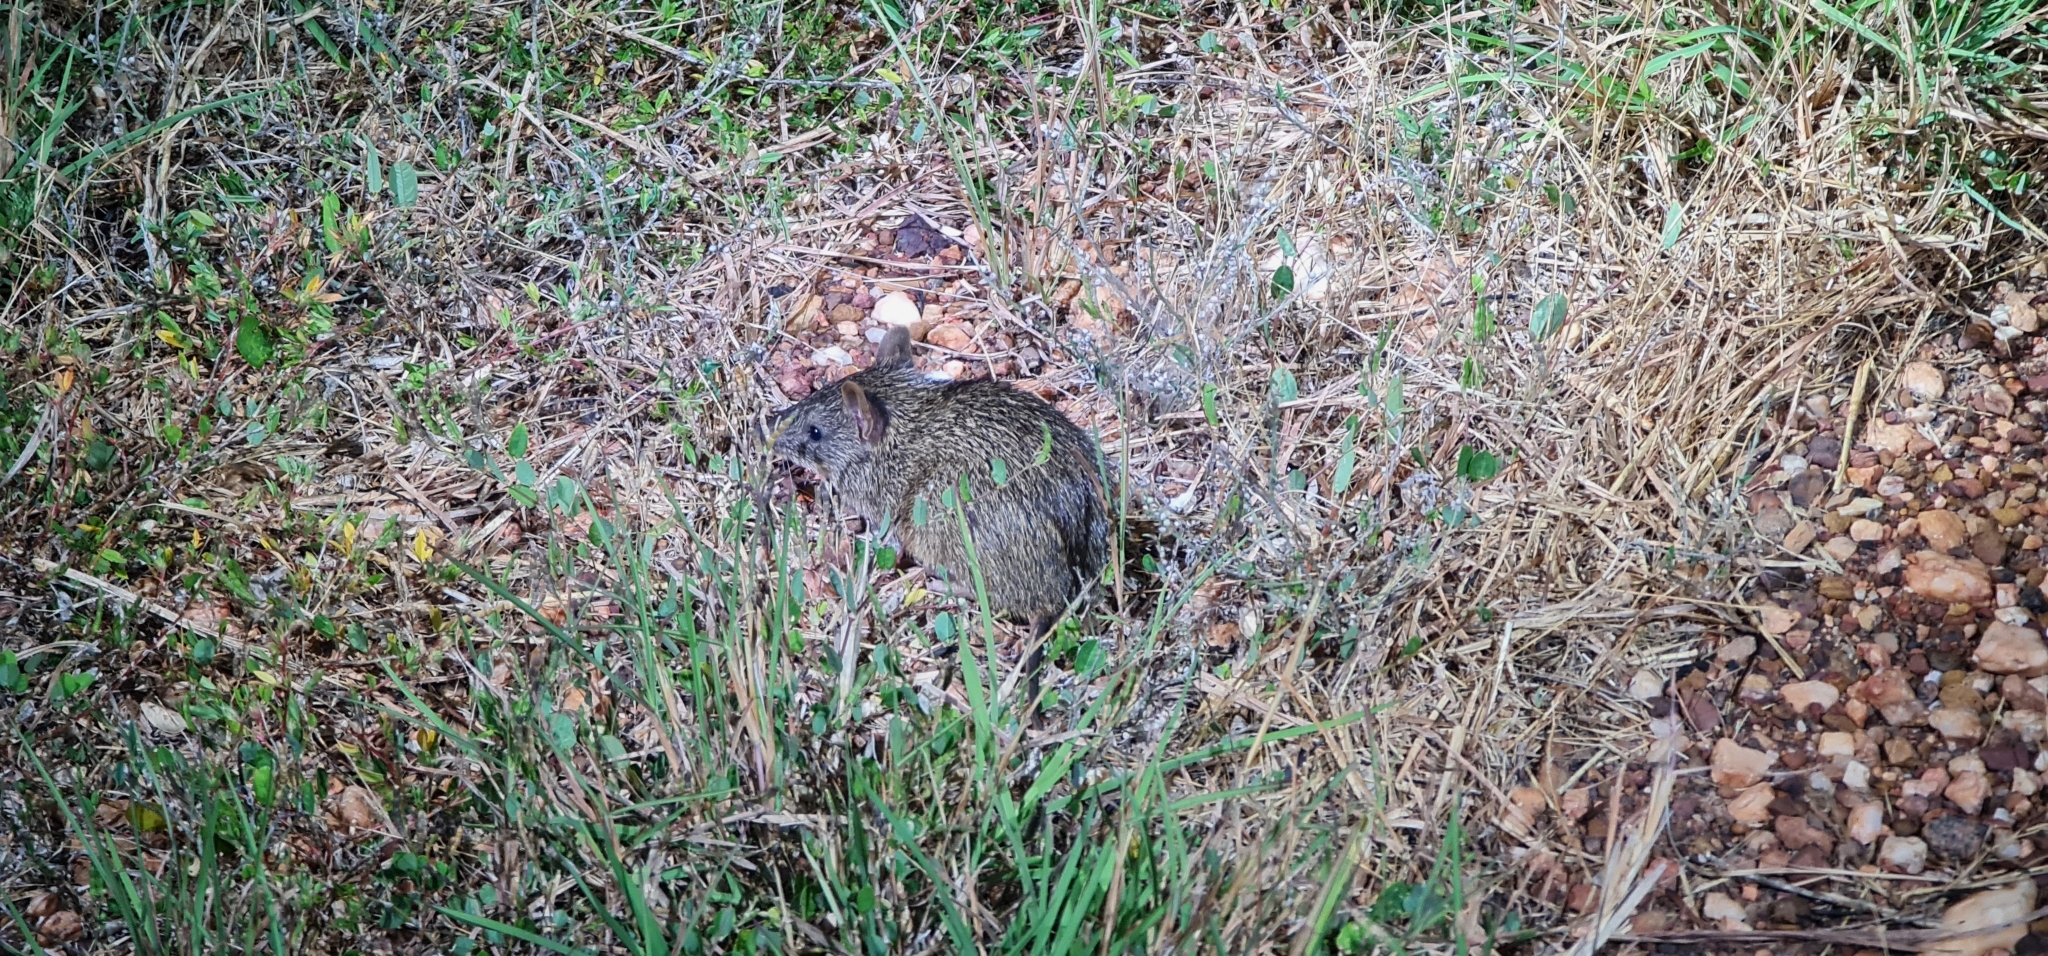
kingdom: Animalia
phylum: Chordata
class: Mammalia
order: Peramelemorphia
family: Peramelidae
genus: Isoodon
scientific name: Isoodon macrourus
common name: Northern brown bandicoot
